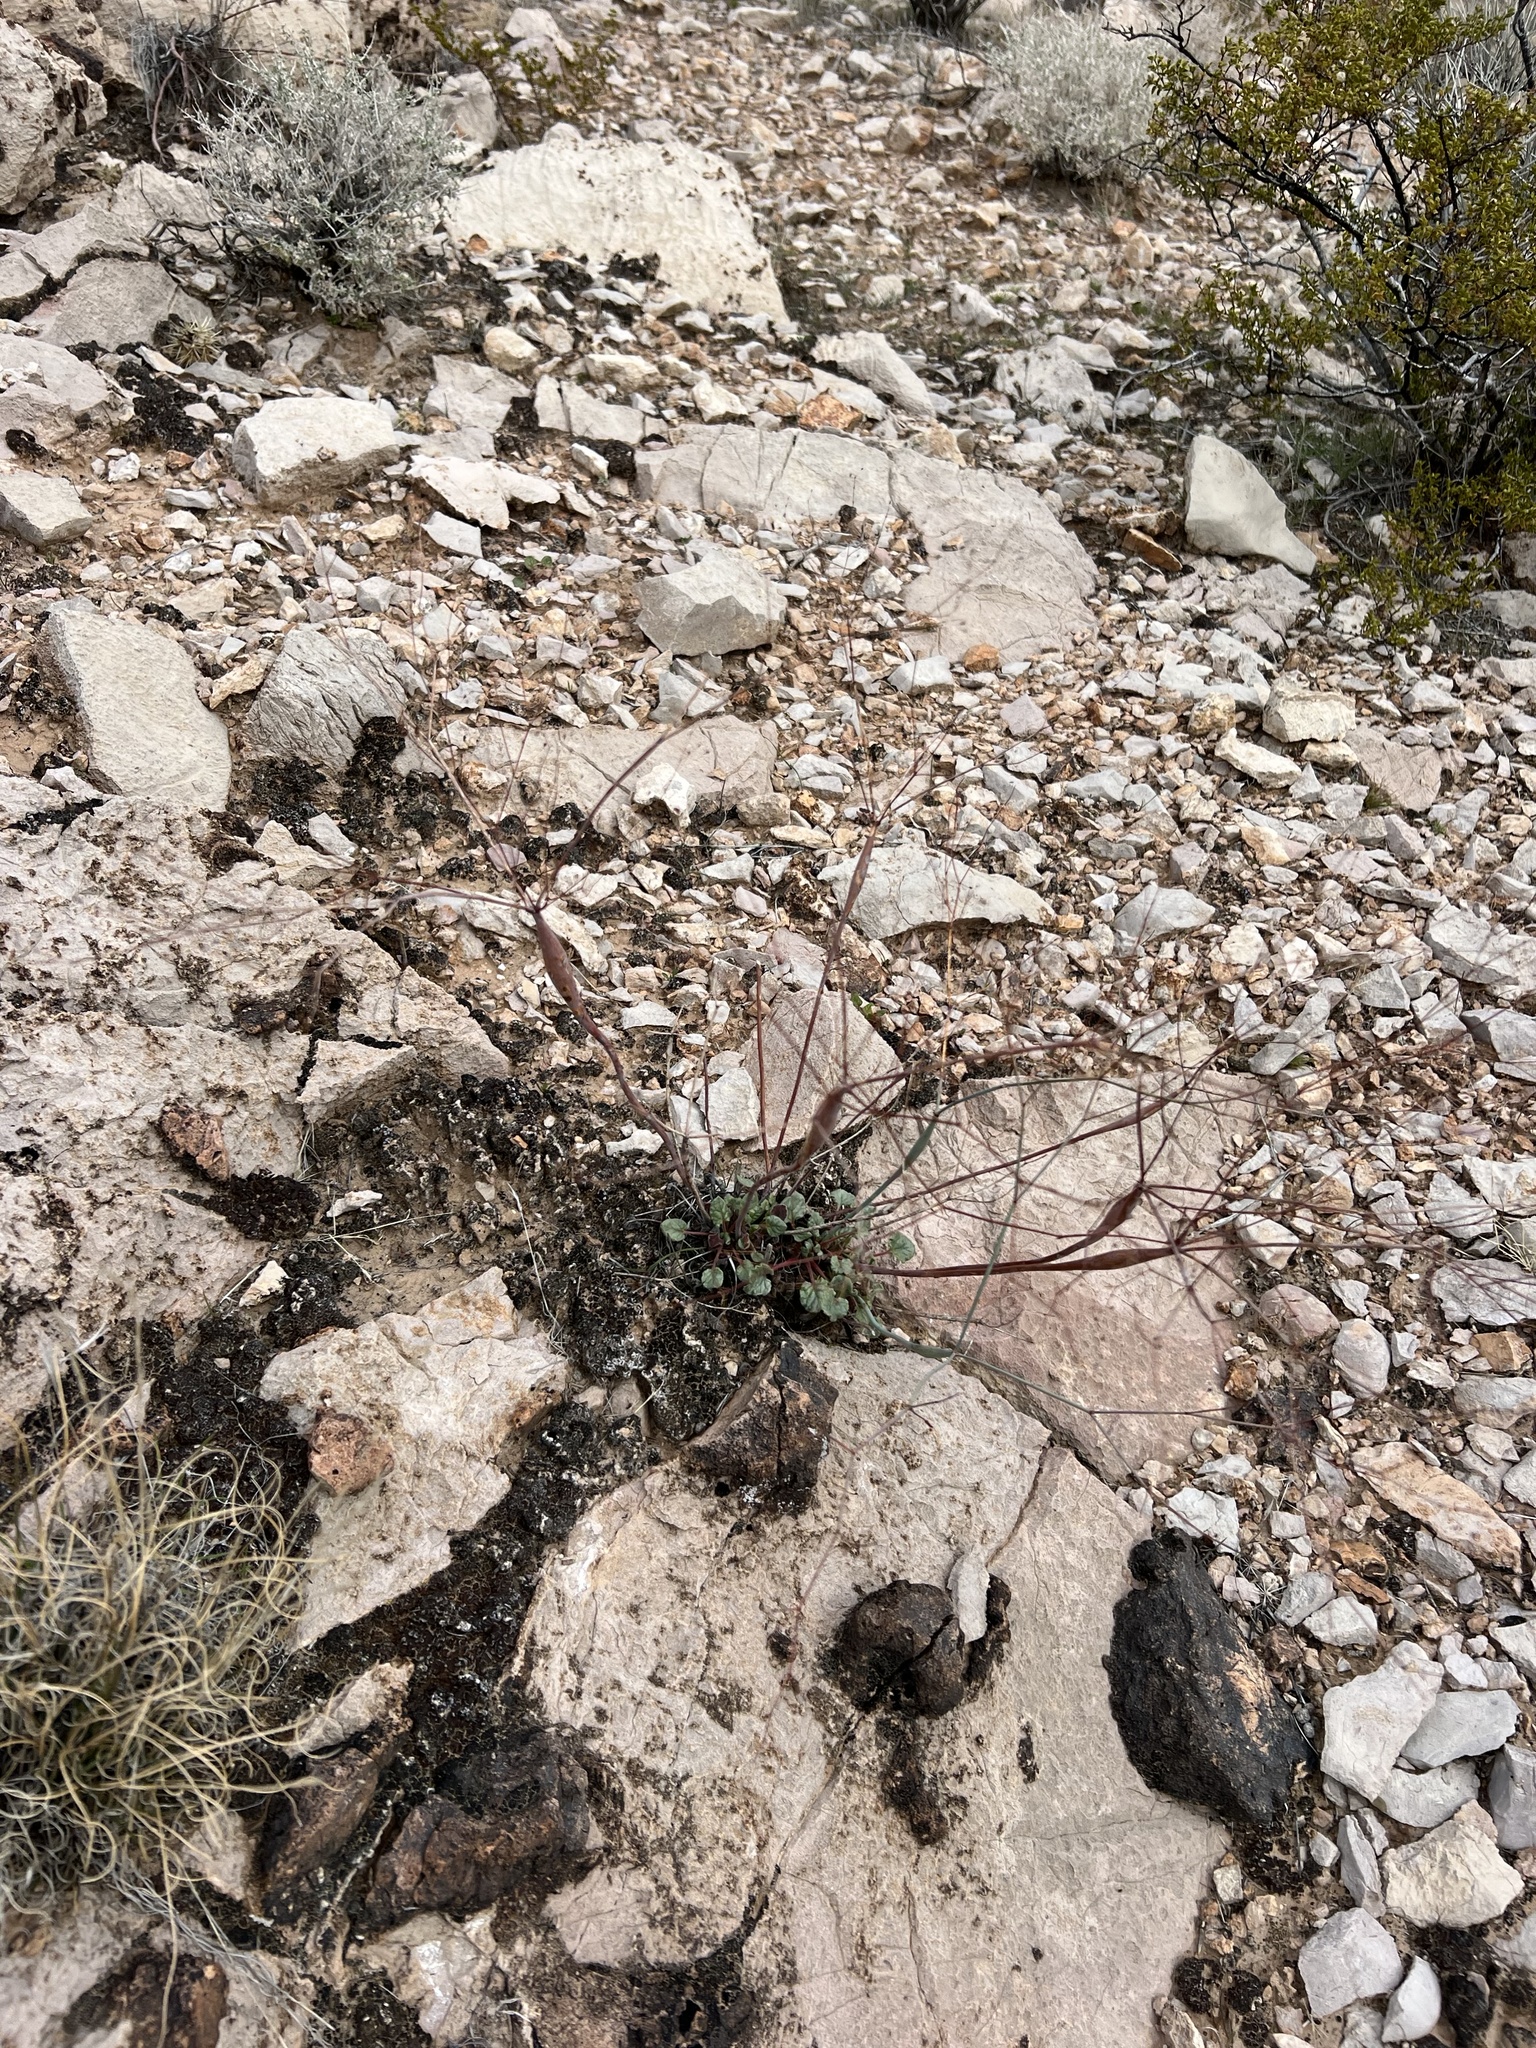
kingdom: Plantae
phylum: Tracheophyta
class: Magnoliopsida
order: Caryophyllales
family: Polygonaceae
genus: Eriogonum
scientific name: Eriogonum inflatum
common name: Desert trumpet
